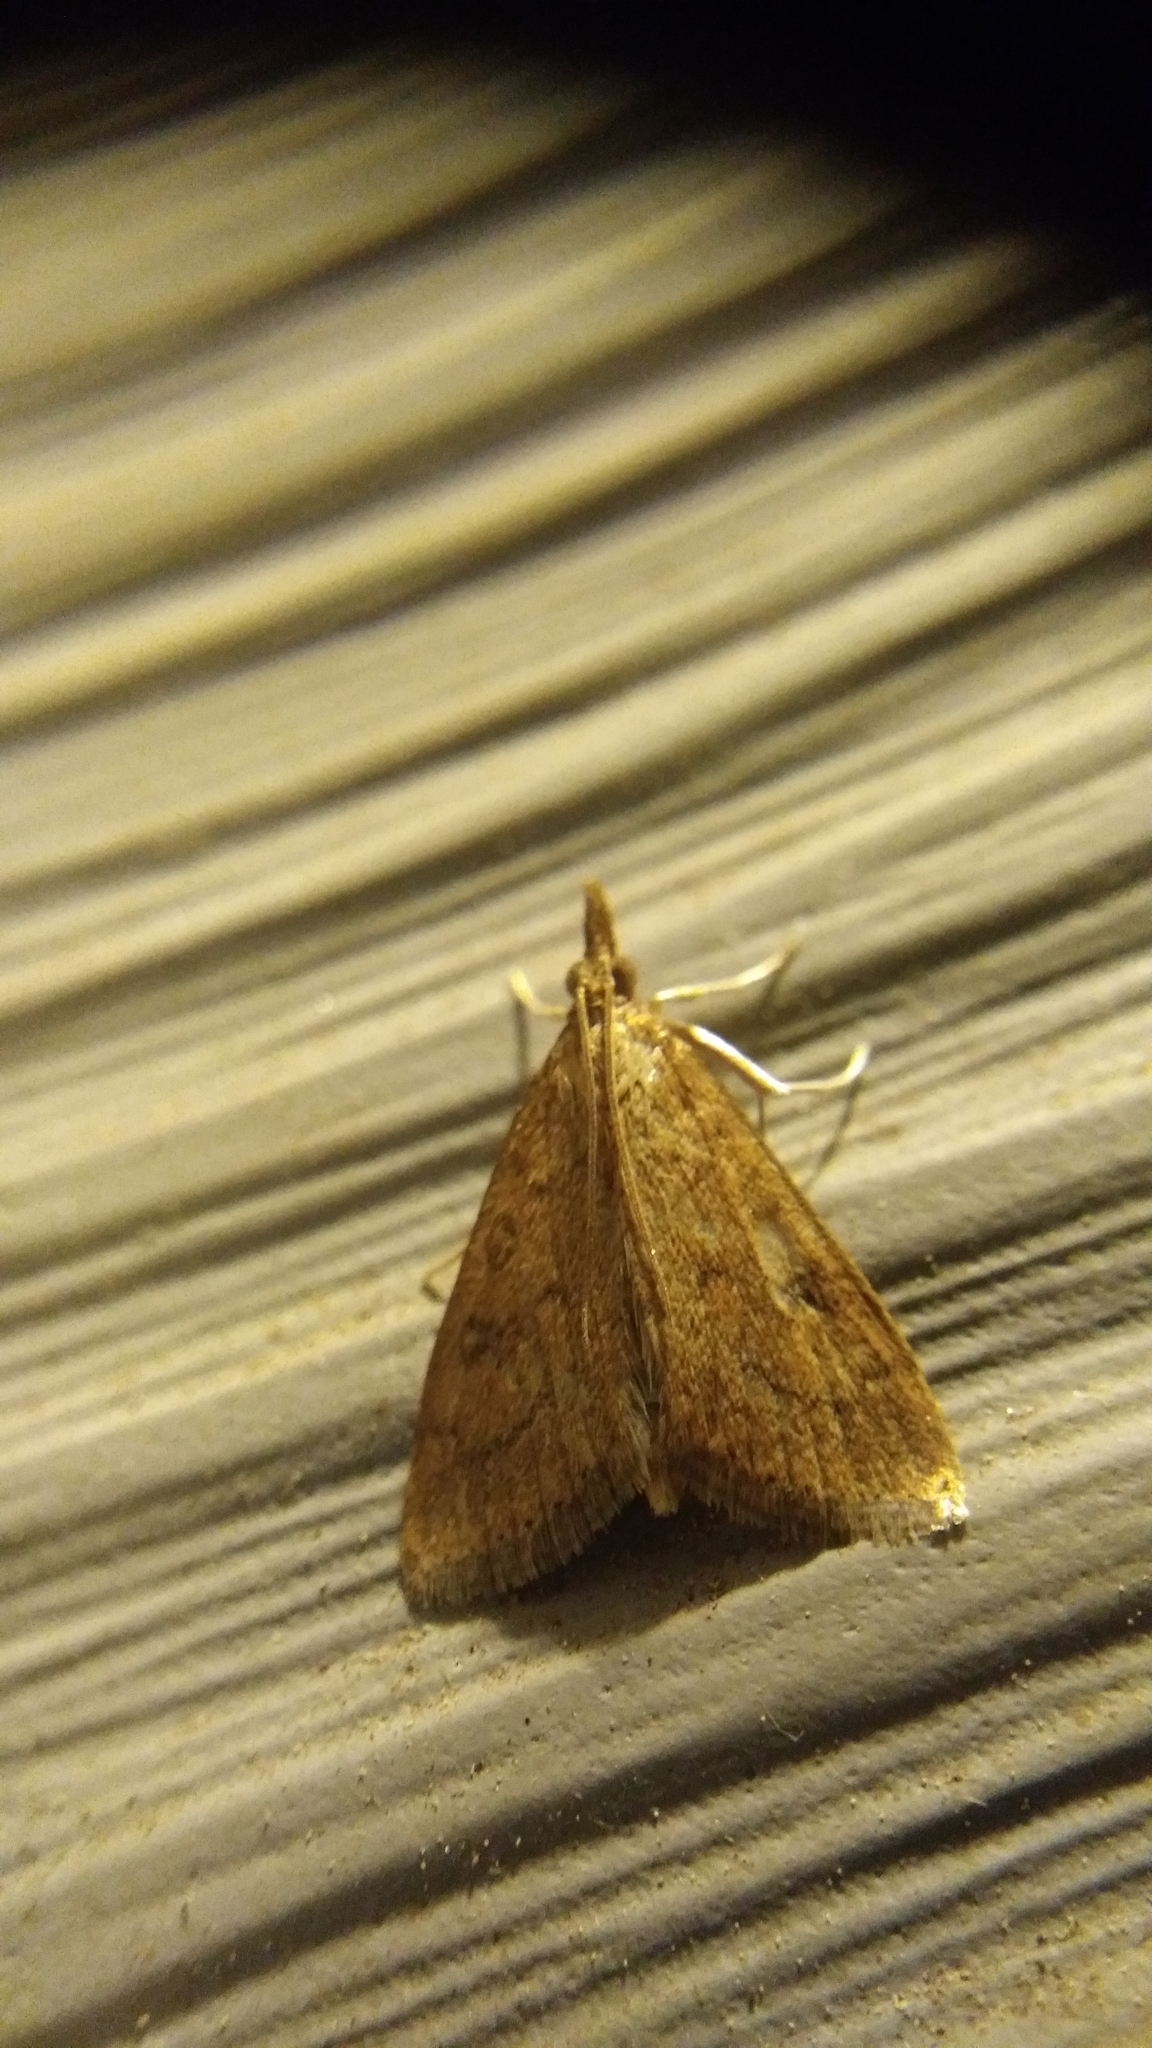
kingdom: Animalia
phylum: Arthropoda
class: Insecta
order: Lepidoptera
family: Crambidae
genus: Udea
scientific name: Udea rubigalis
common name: Celery leaftier moth
